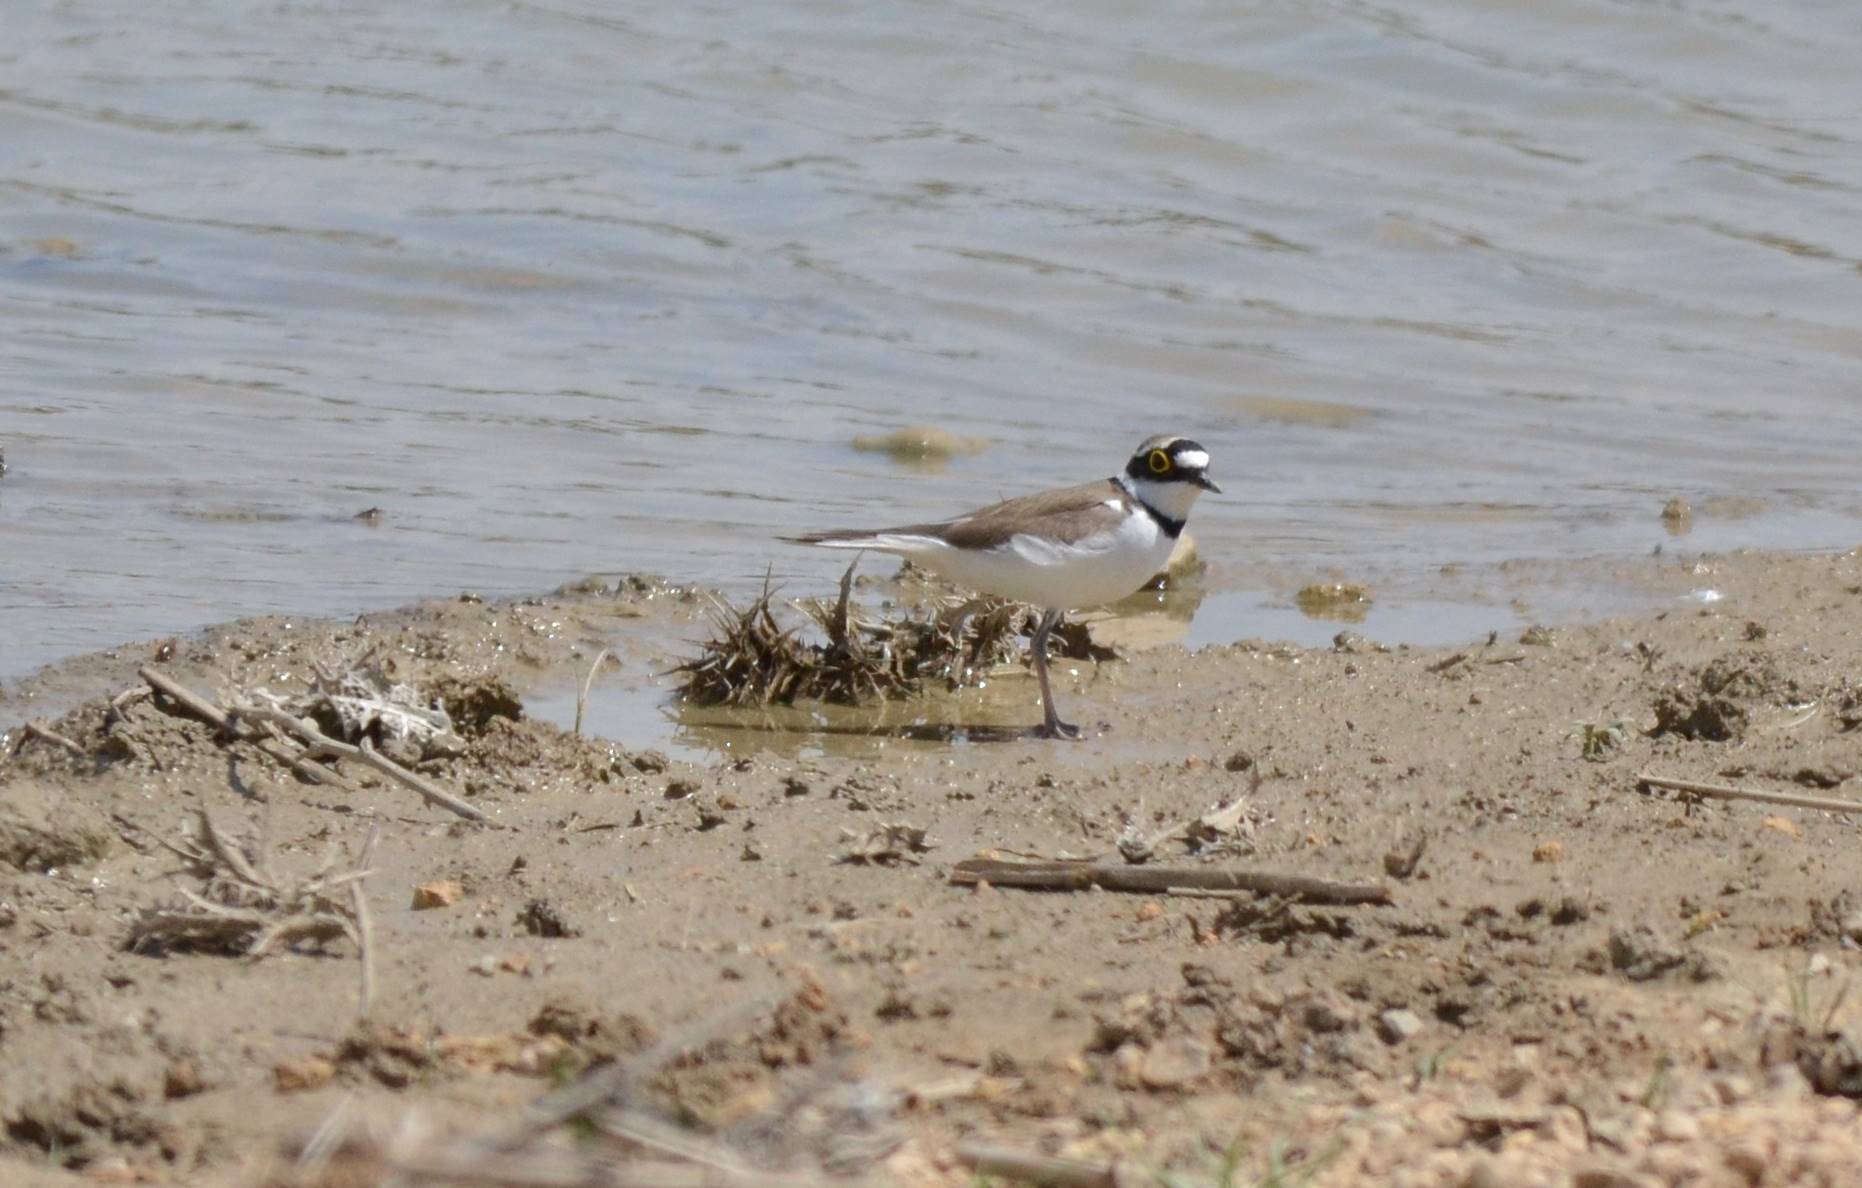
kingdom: Animalia
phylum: Chordata
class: Aves
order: Charadriiformes
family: Charadriidae
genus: Charadrius
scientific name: Charadrius dubius
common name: Little ringed plover
